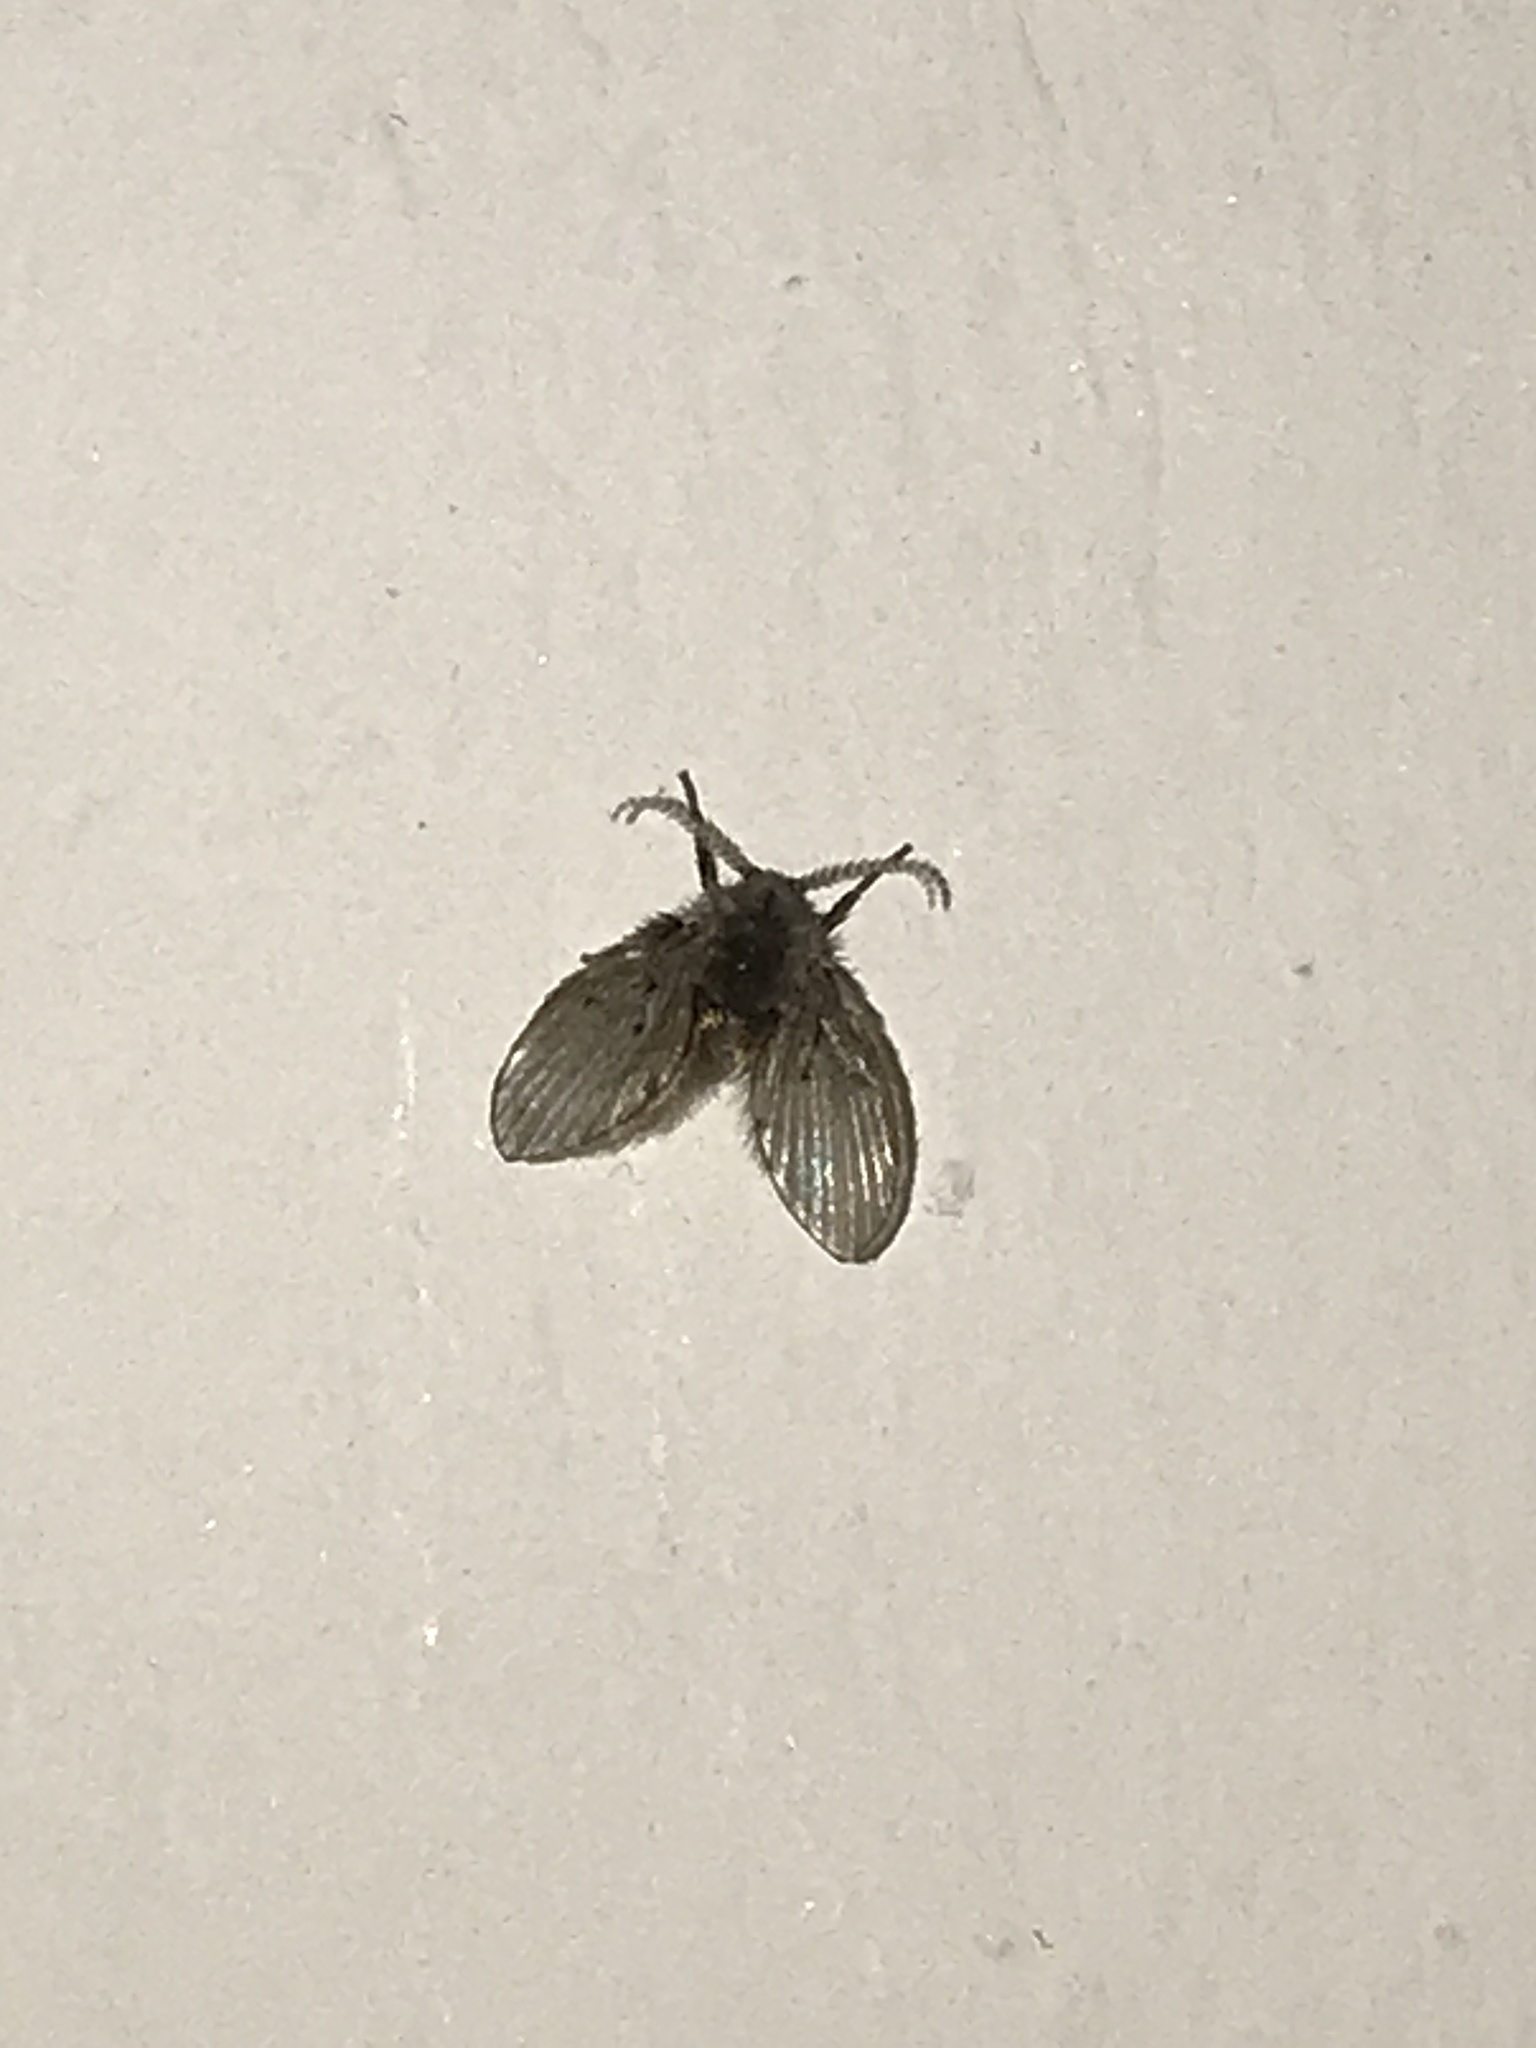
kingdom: Animalia
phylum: Arthropoda
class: Insecta
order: Diptera
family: Psychodidae
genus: Clogmia
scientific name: Clogmia albipunctatus
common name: White-spotted moth fly
